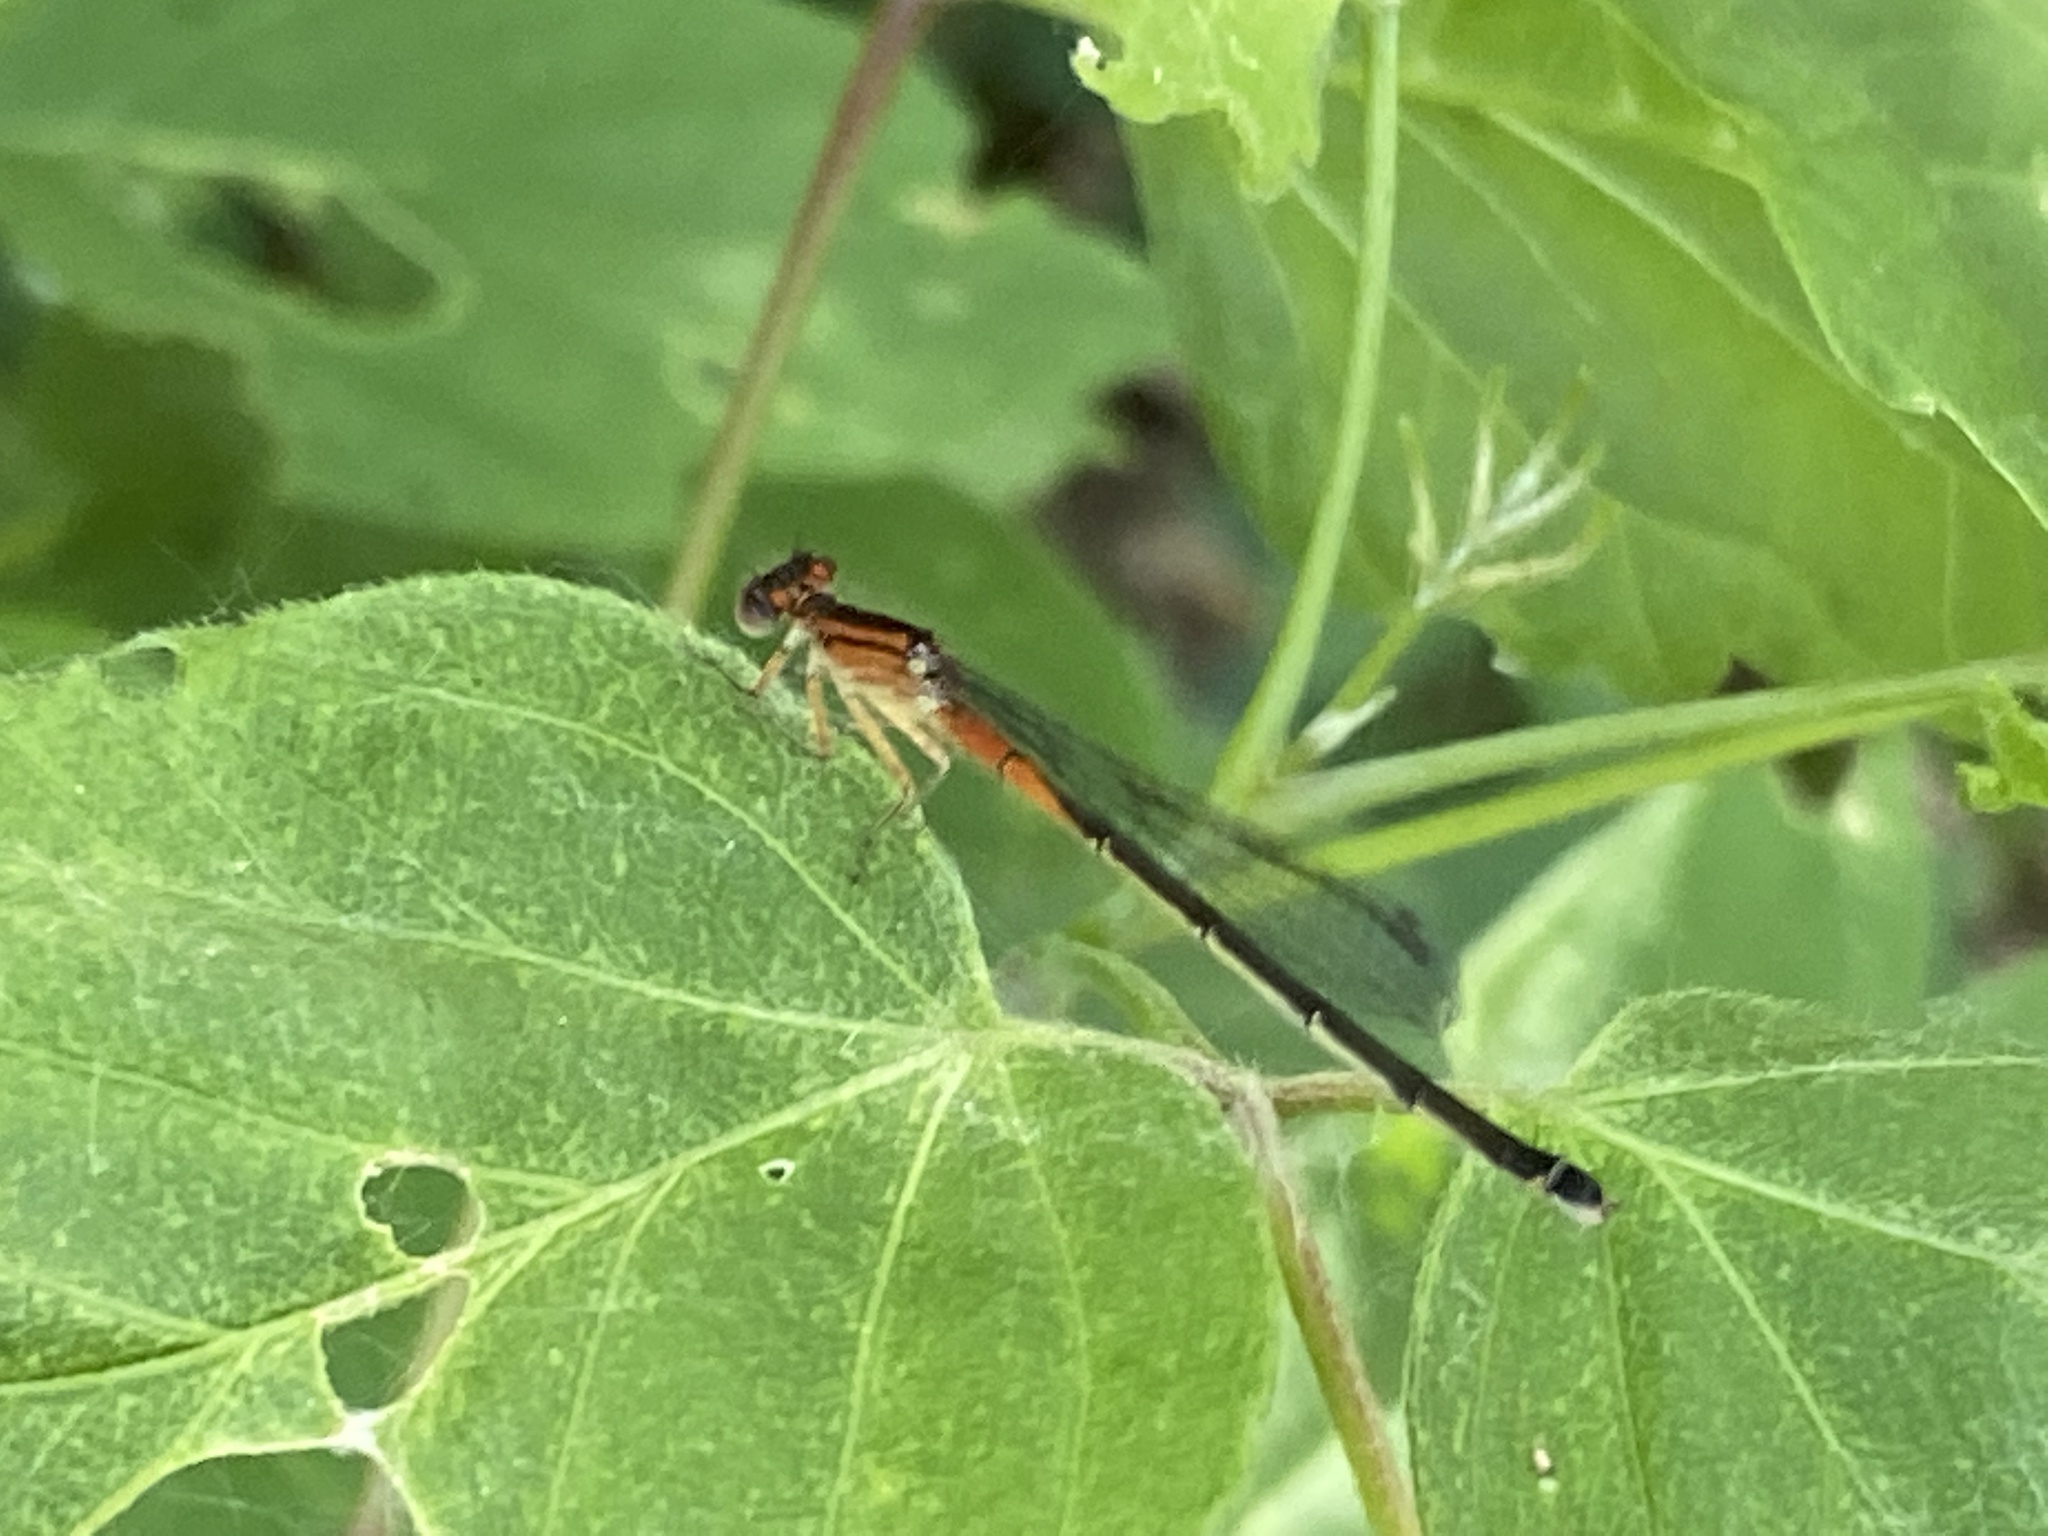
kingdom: Animalia
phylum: Arthropoda
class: Insecta
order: Odonata
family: Coenagrionidae
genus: Ischnura
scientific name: Ischnura verticalis
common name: Eastern forktail
